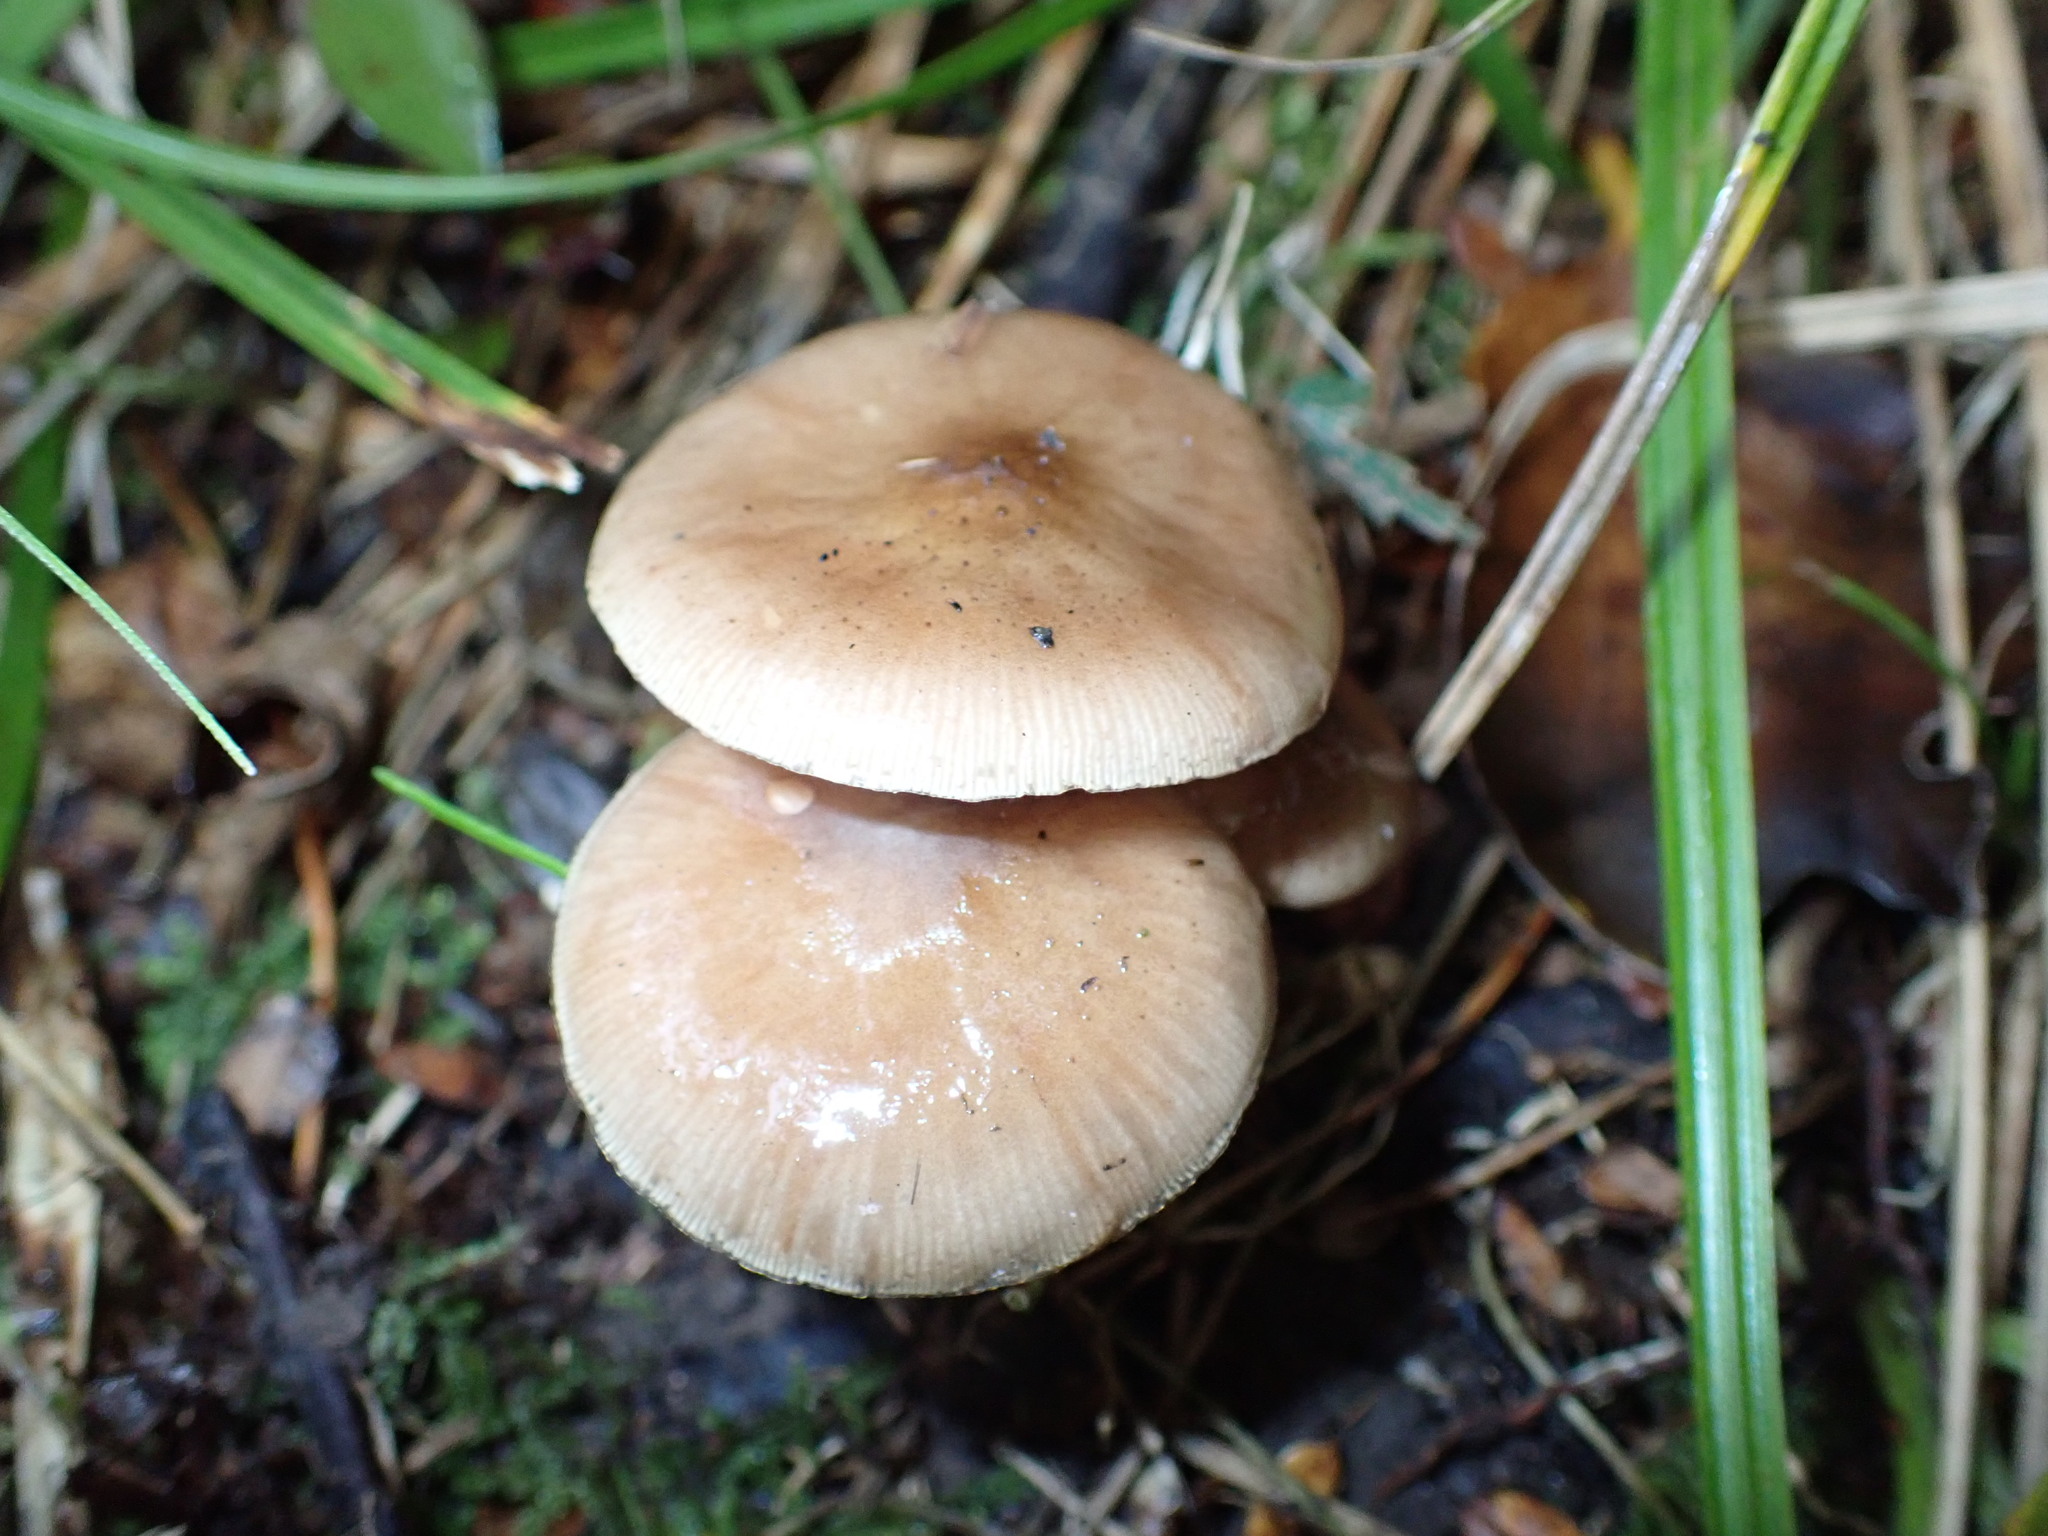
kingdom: Fungi
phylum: Basidiomycota
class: Agaricomycetes
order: Agaricales
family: Physalacriaceae
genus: Armillaria
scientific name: Armillaria novae-zelandiae
